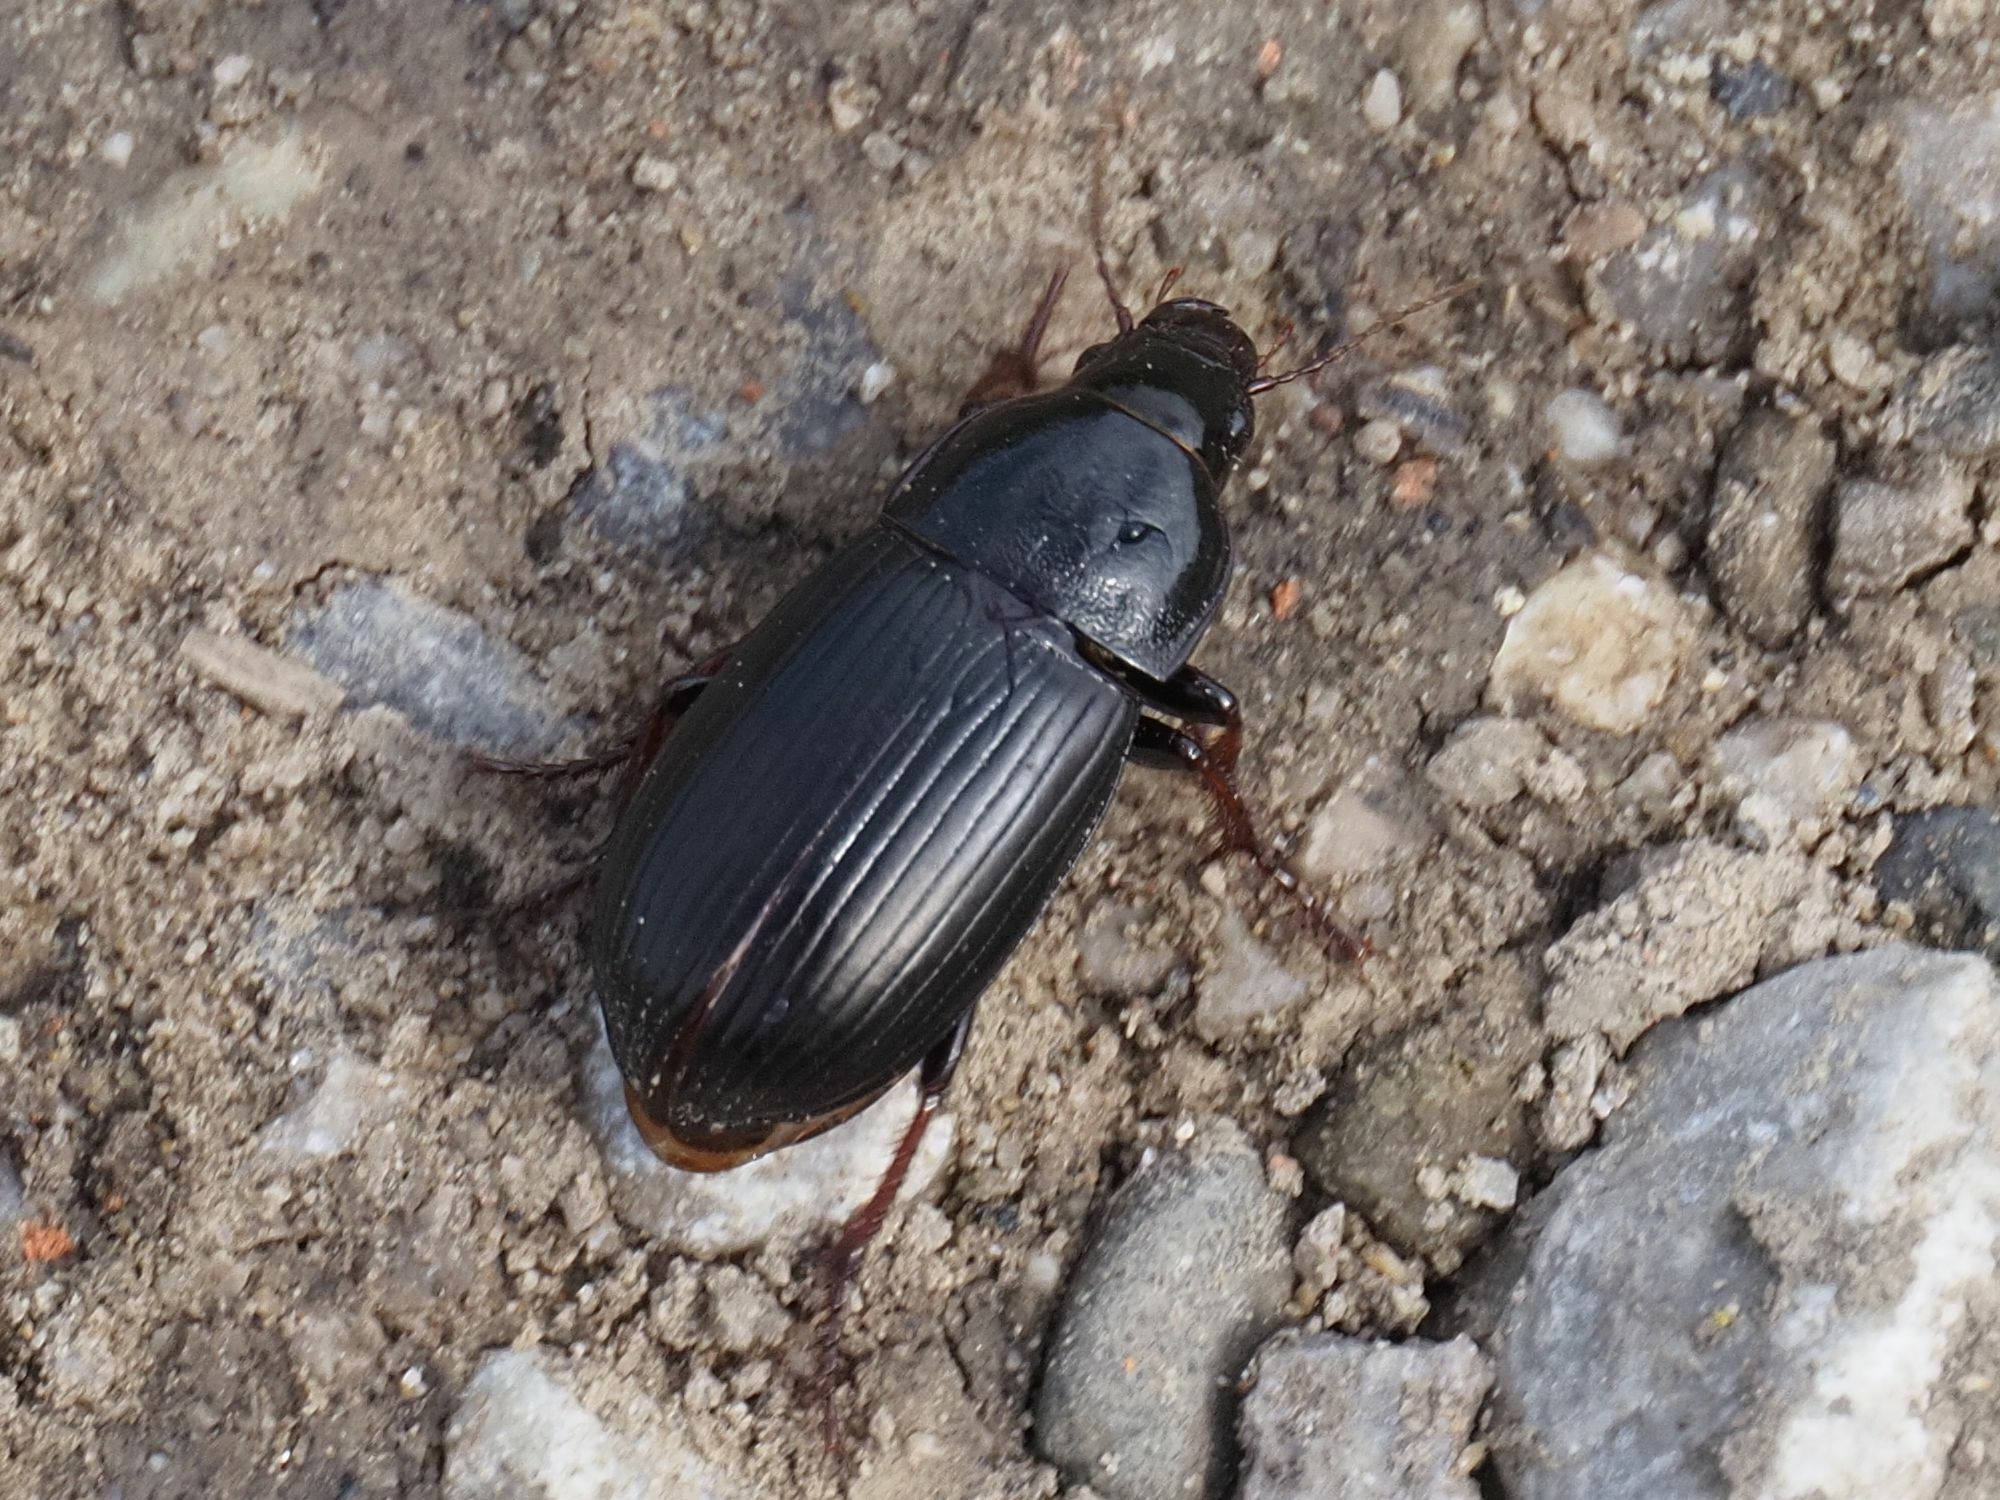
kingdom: Animalia
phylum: Arthropoda
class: Insecta
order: Coleoptera
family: Carabidae
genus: Zabrus
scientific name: Zabrus tenebrioides
